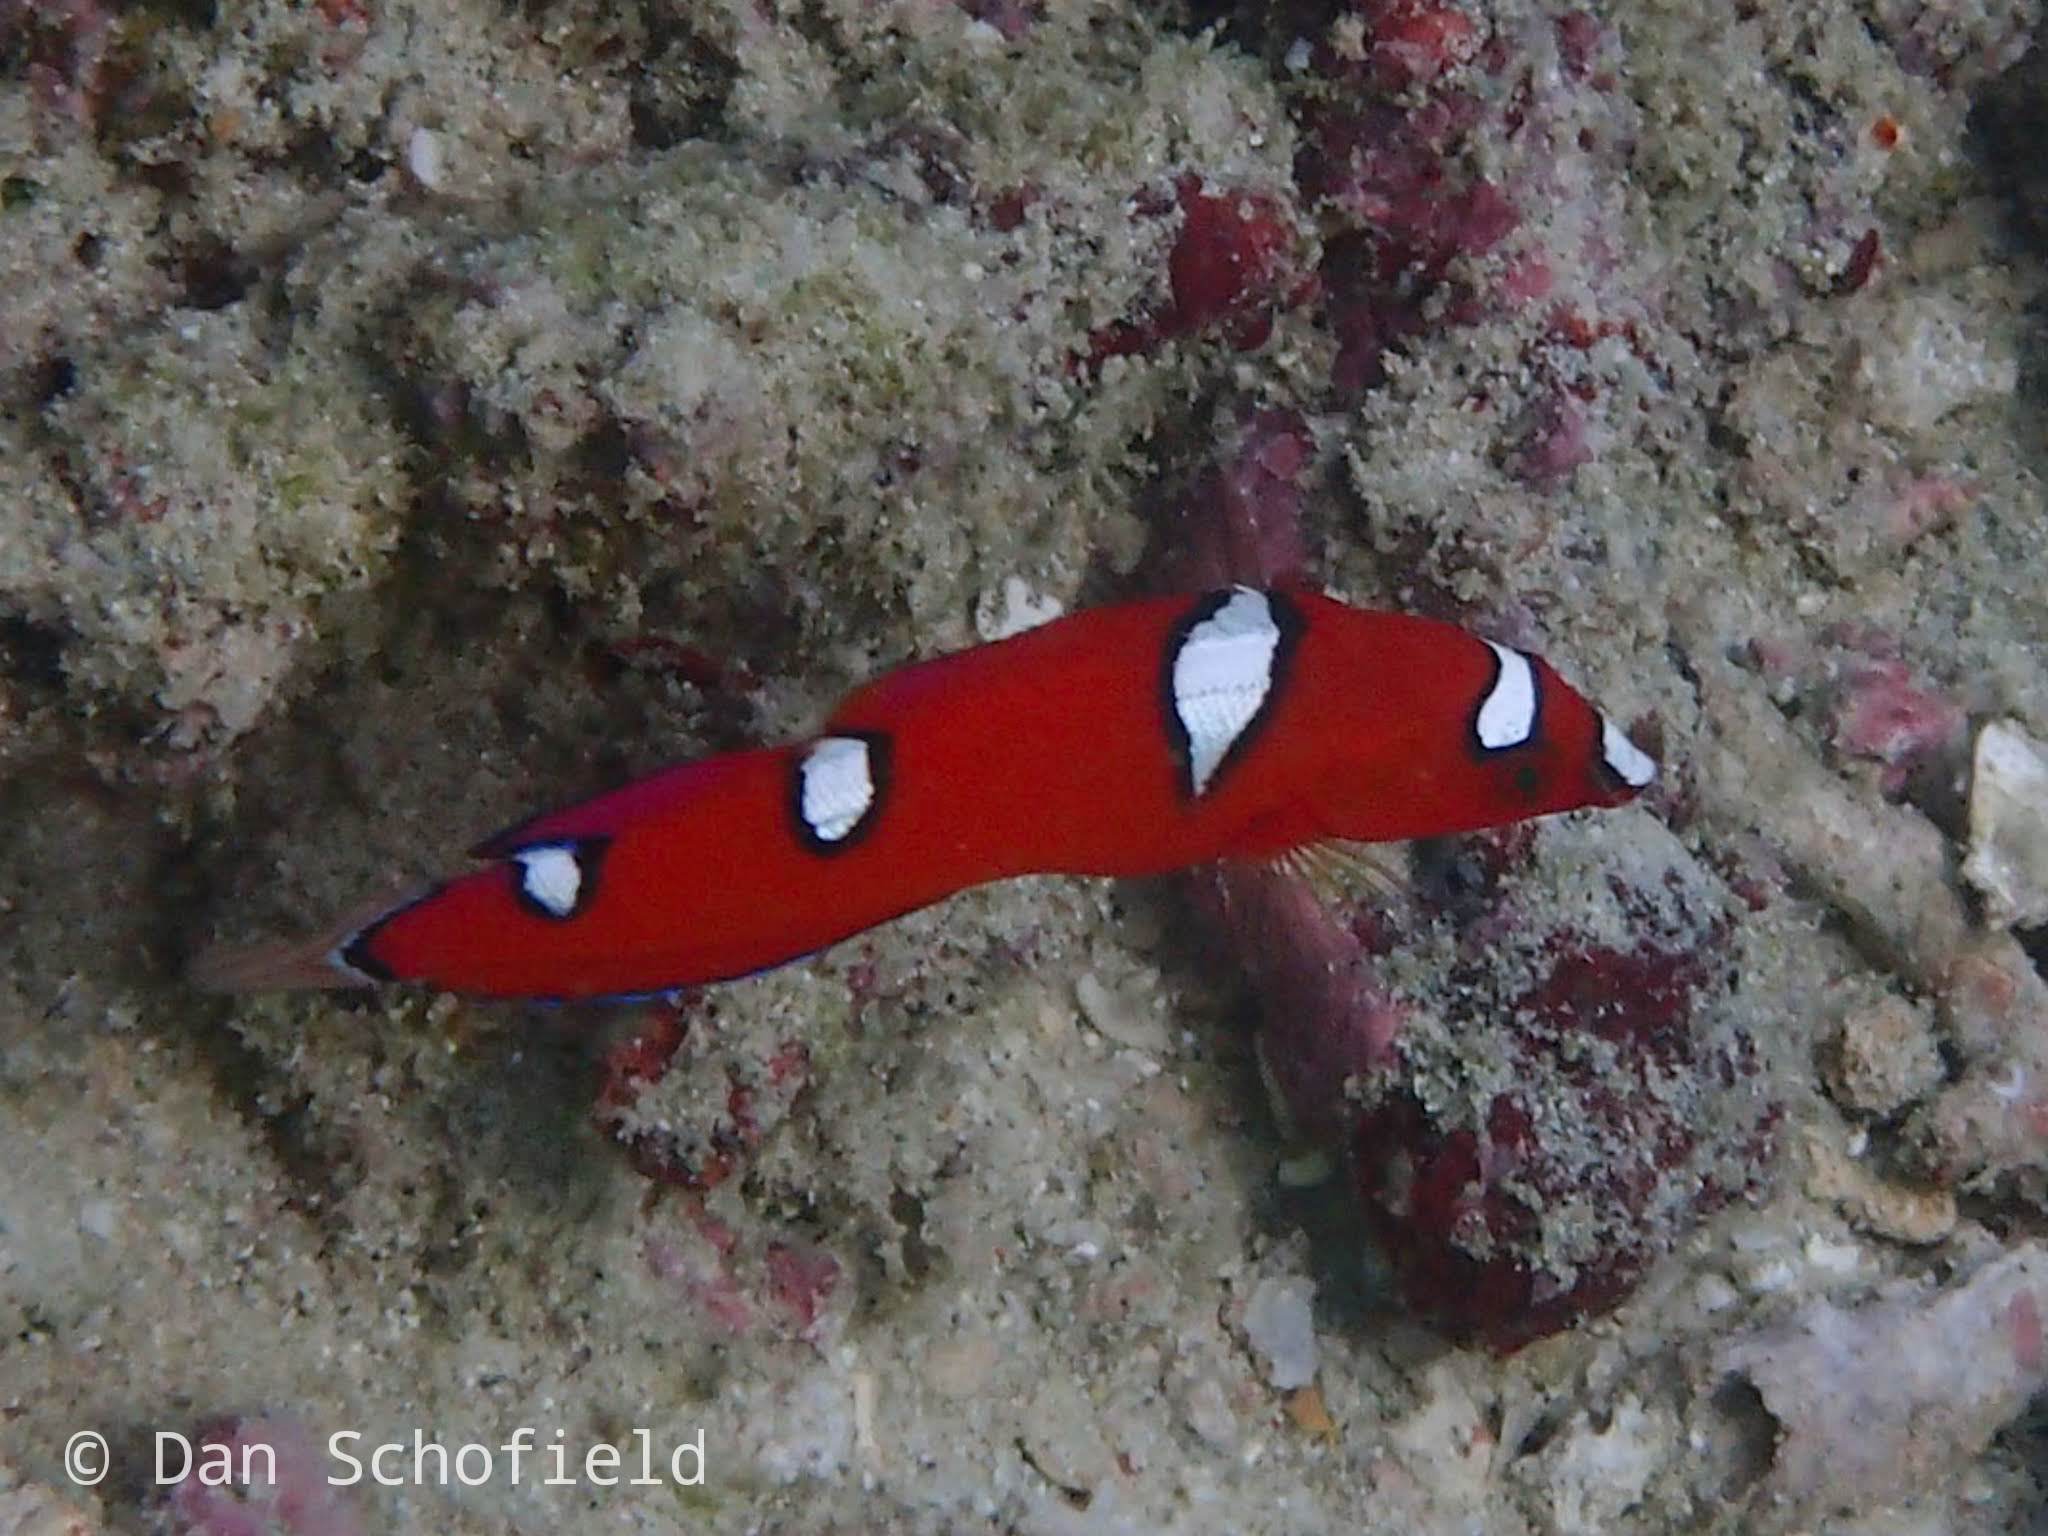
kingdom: Animalia
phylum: Chordata
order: Perciformes
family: Labridae
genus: Coris
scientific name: Coris gaimard
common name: Yellowtail coris
